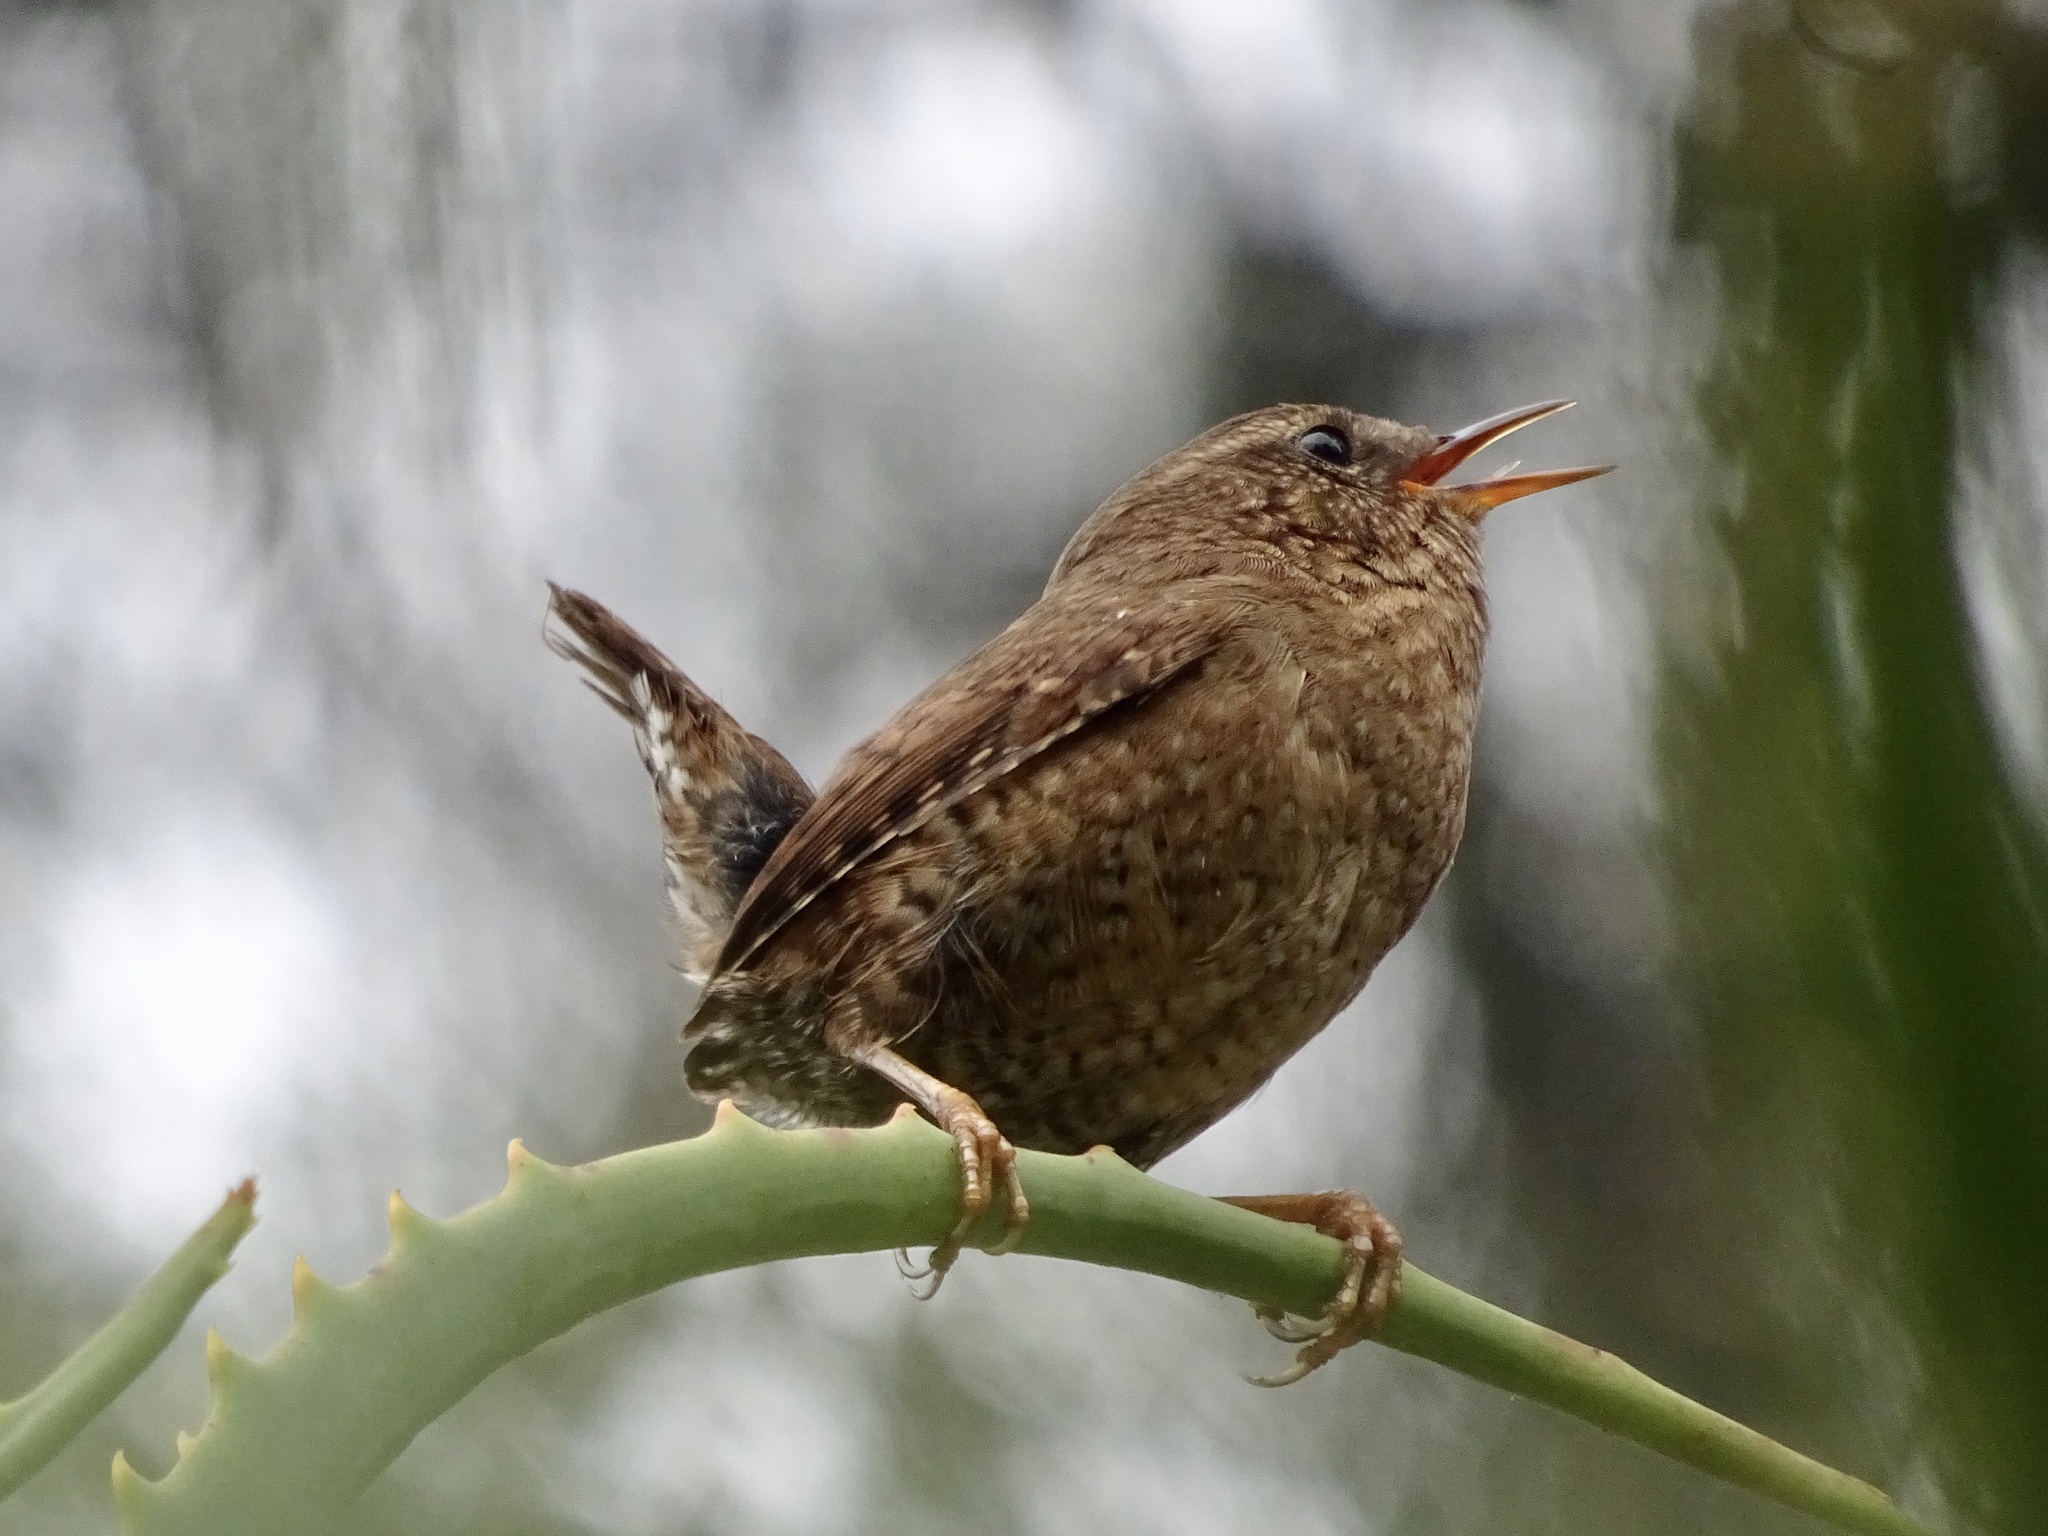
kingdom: Animalia
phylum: Chordata
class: Aves
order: Passeriformes
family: Troglodytidae
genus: Troglodytes
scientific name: Troglodytes pacificus
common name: Pacific wren
